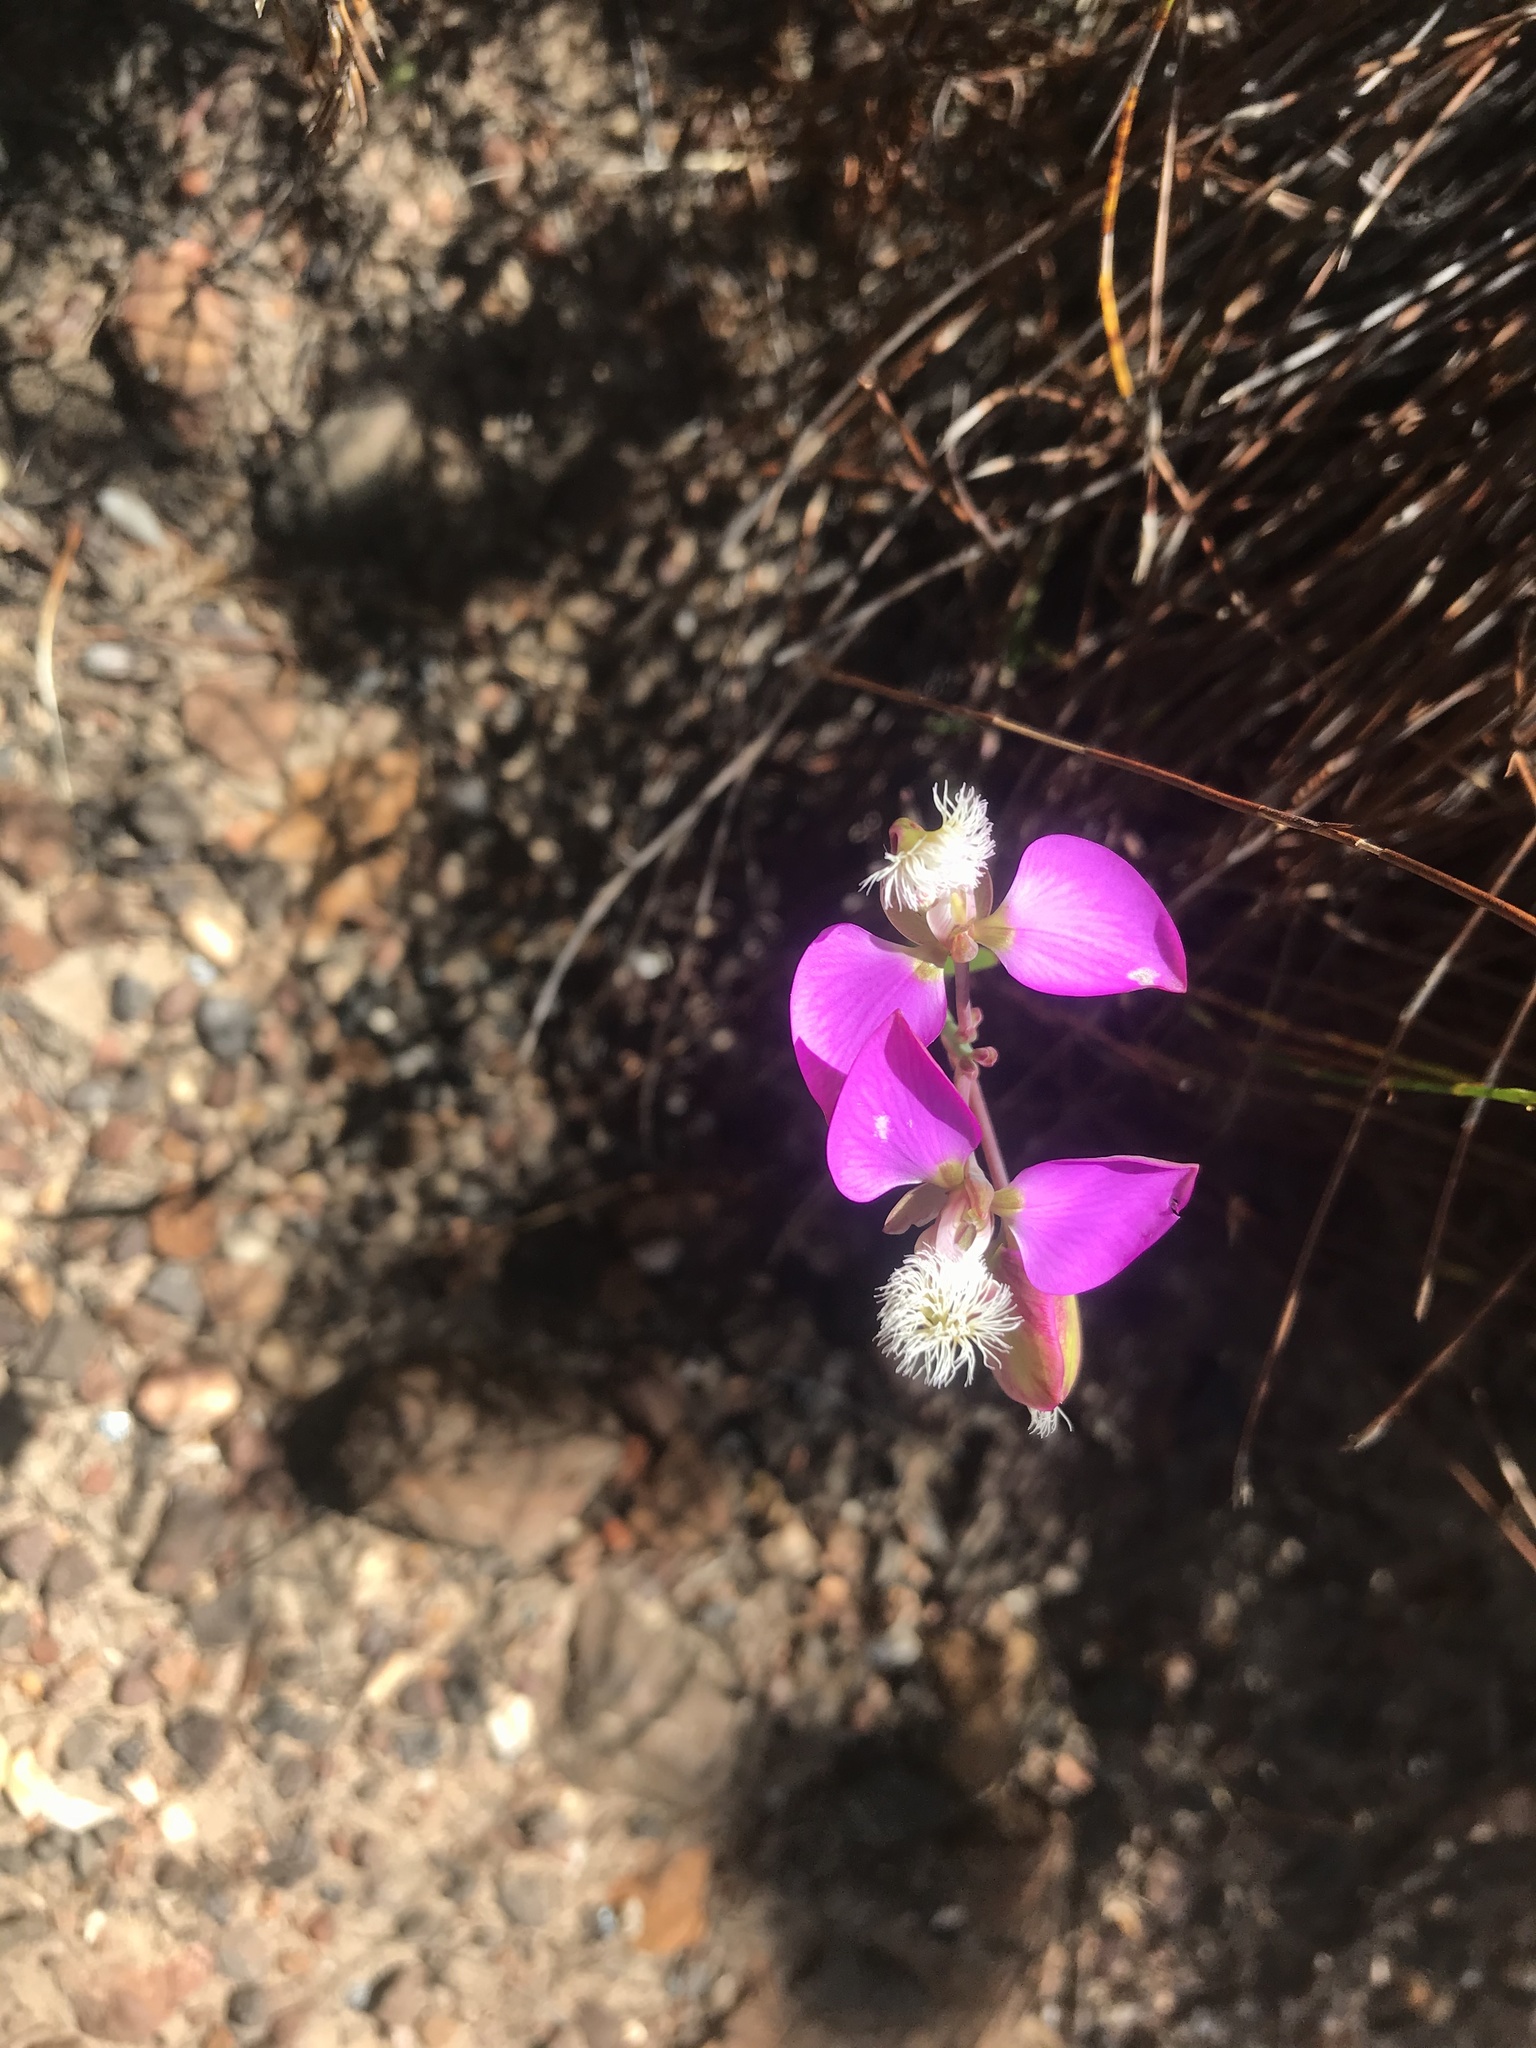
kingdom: Plantae
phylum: Tracheophyta
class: Magnoliopsida
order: Fabales
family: Polygalaceae
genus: Polygala
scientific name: Polygala bracteolata
